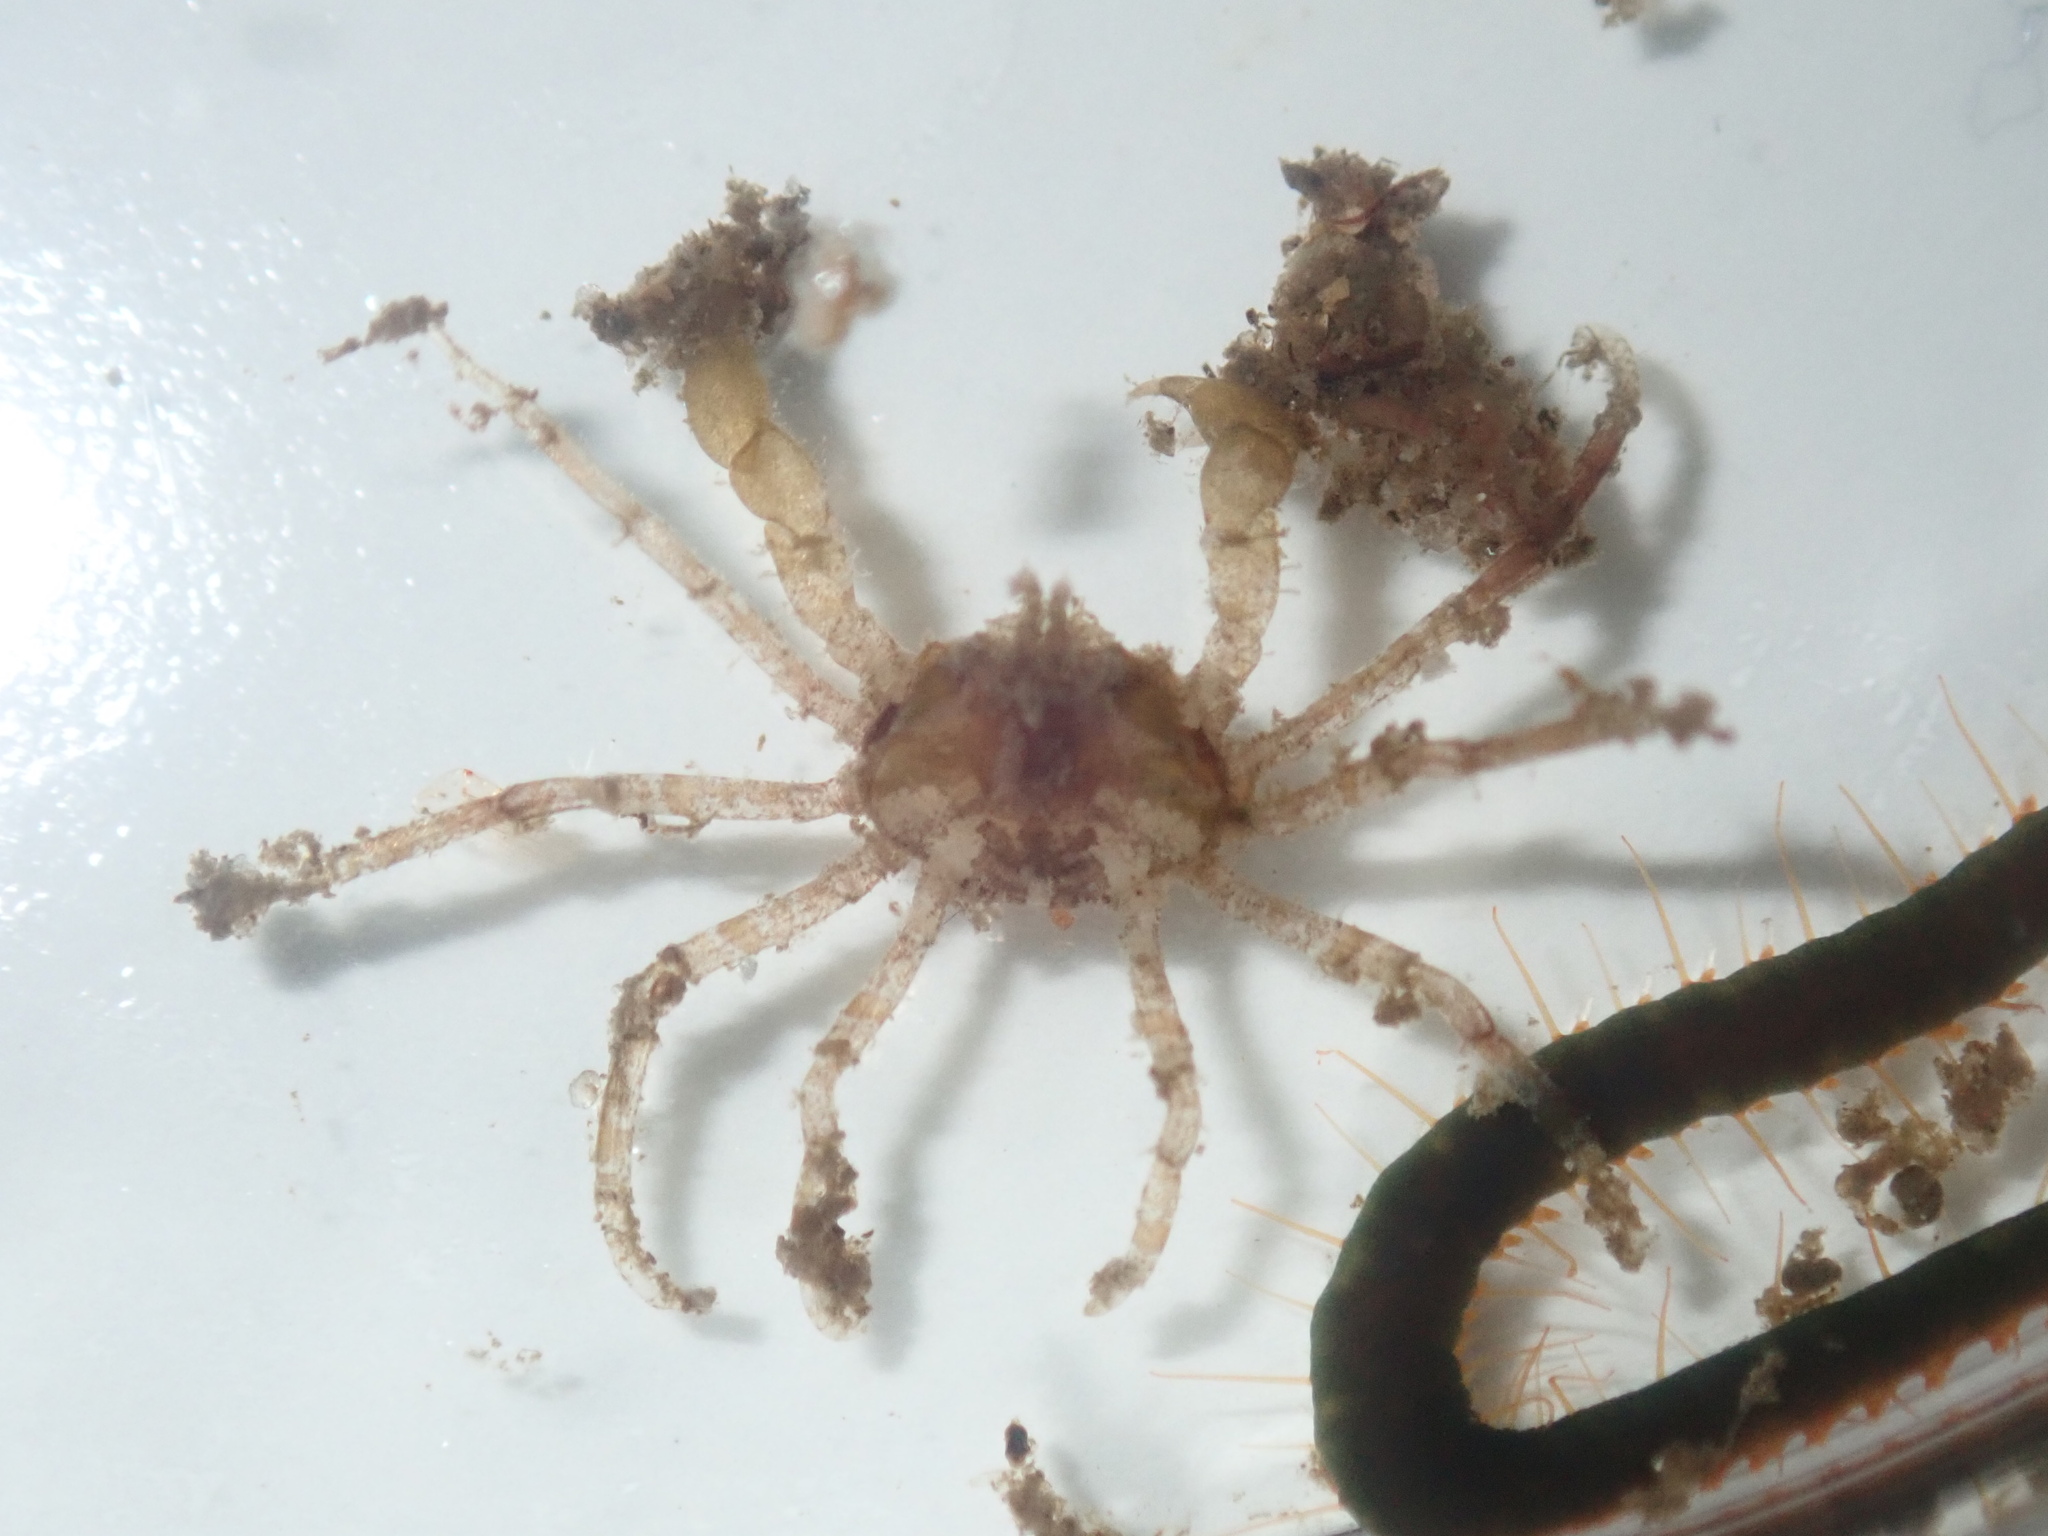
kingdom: Animalia
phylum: Arthropoda
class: Malacostraca
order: Decapoda
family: Hymenosomatidae
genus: Halicarcinus
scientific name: Halicarcinus ovatus
